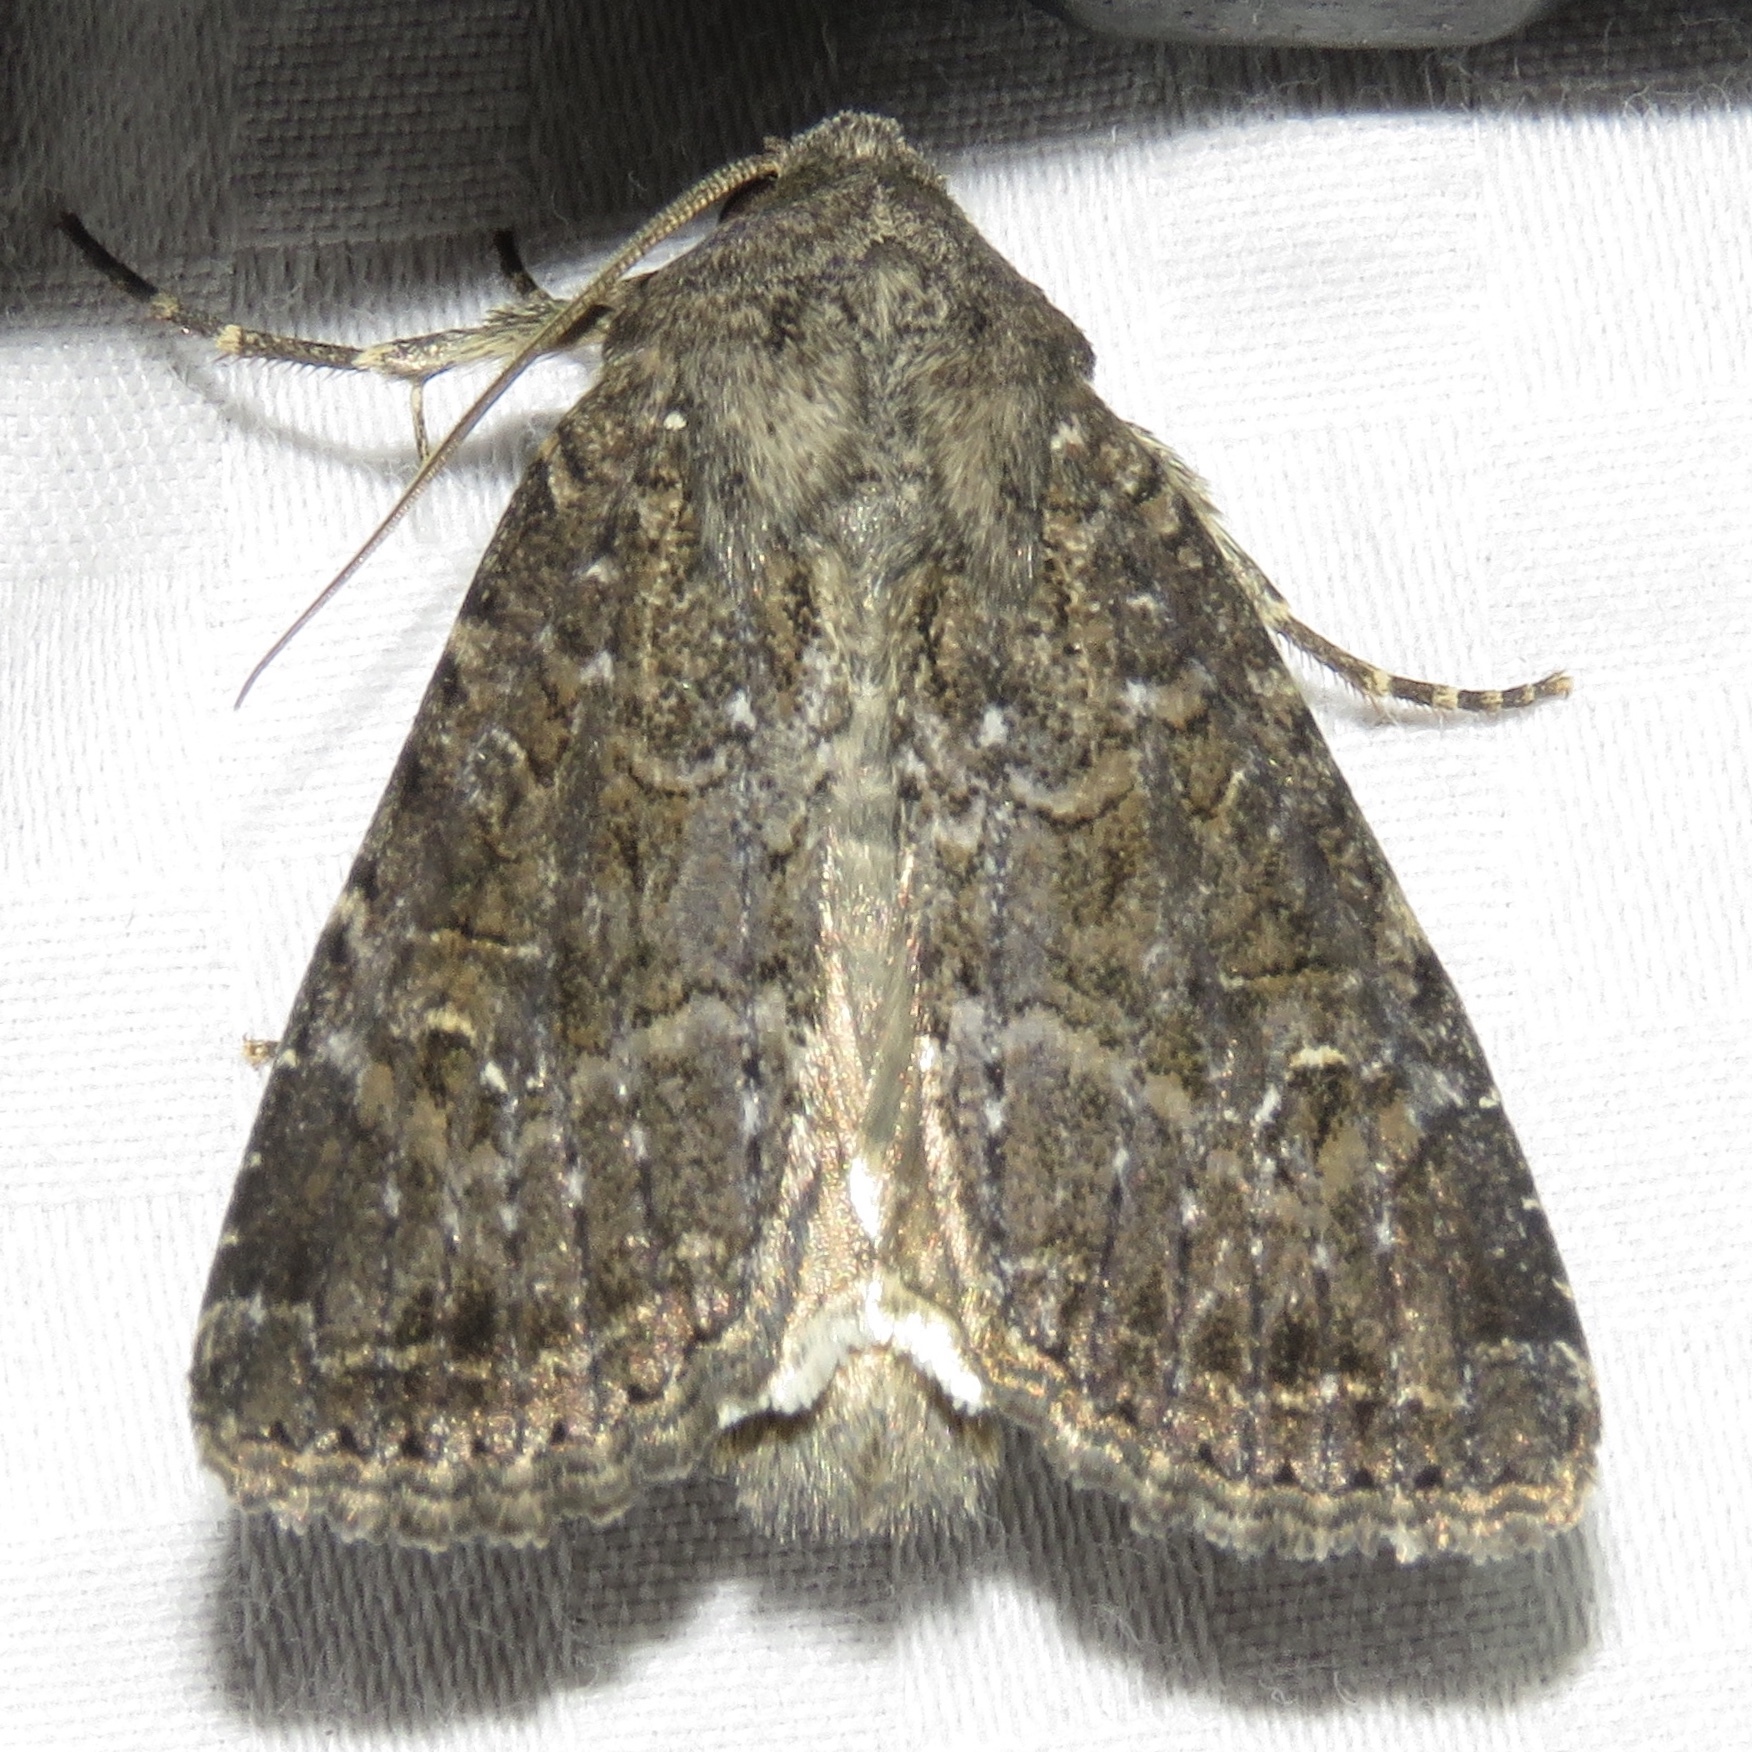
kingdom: Animalia
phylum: Arthropoda
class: Insecta
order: Lepidoptera
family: Noctuidae
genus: Apamea
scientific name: Apamea devastator
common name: Glassy cutworm
